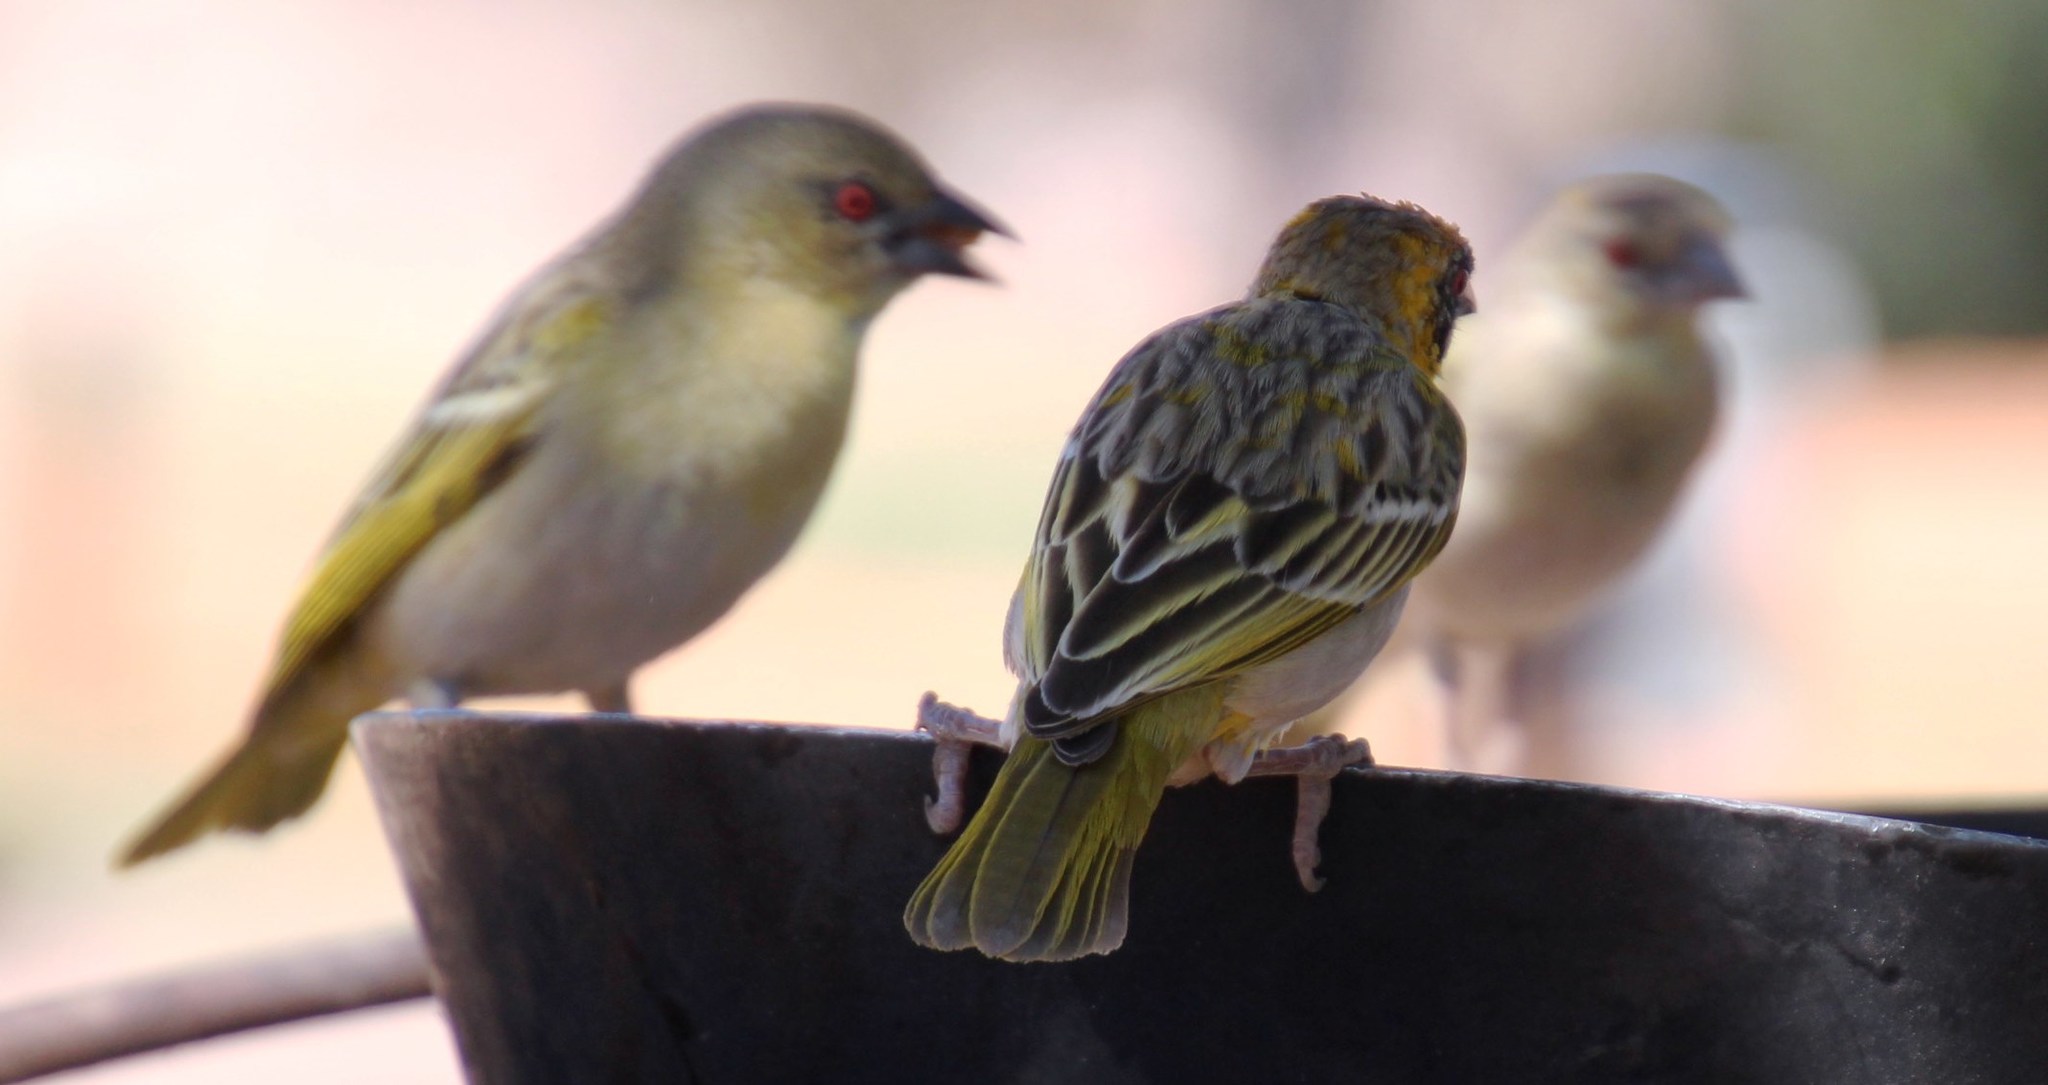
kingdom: Animalia
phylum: Chordata
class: Aves
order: Passeriformes
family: Ploceidae
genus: Ploceus
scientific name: Ploceus velatus
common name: Southern masked weaver
